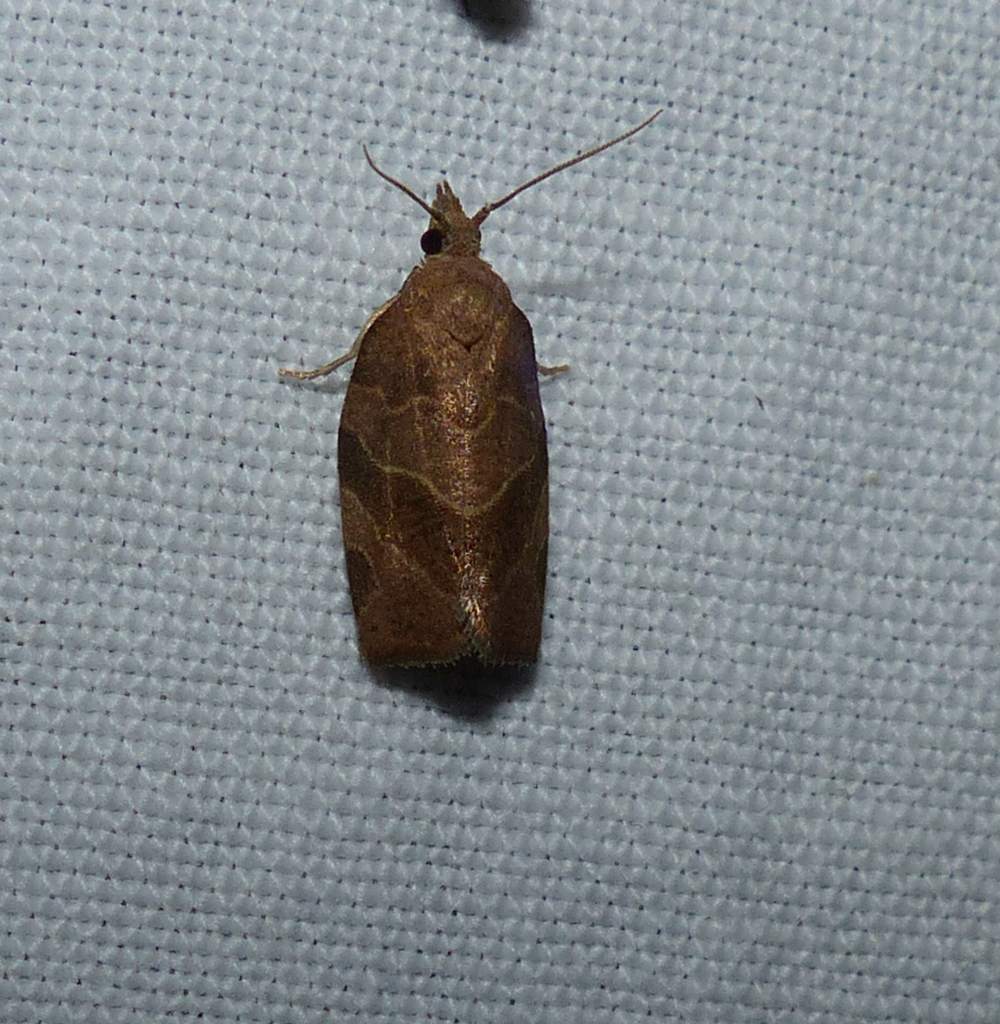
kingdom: Animalia
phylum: Arthropoda
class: Insecta
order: Lepidoptera
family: Tortricidae
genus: Pandemis
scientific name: Pandemis limitata
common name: Three-lined leafroller moth
